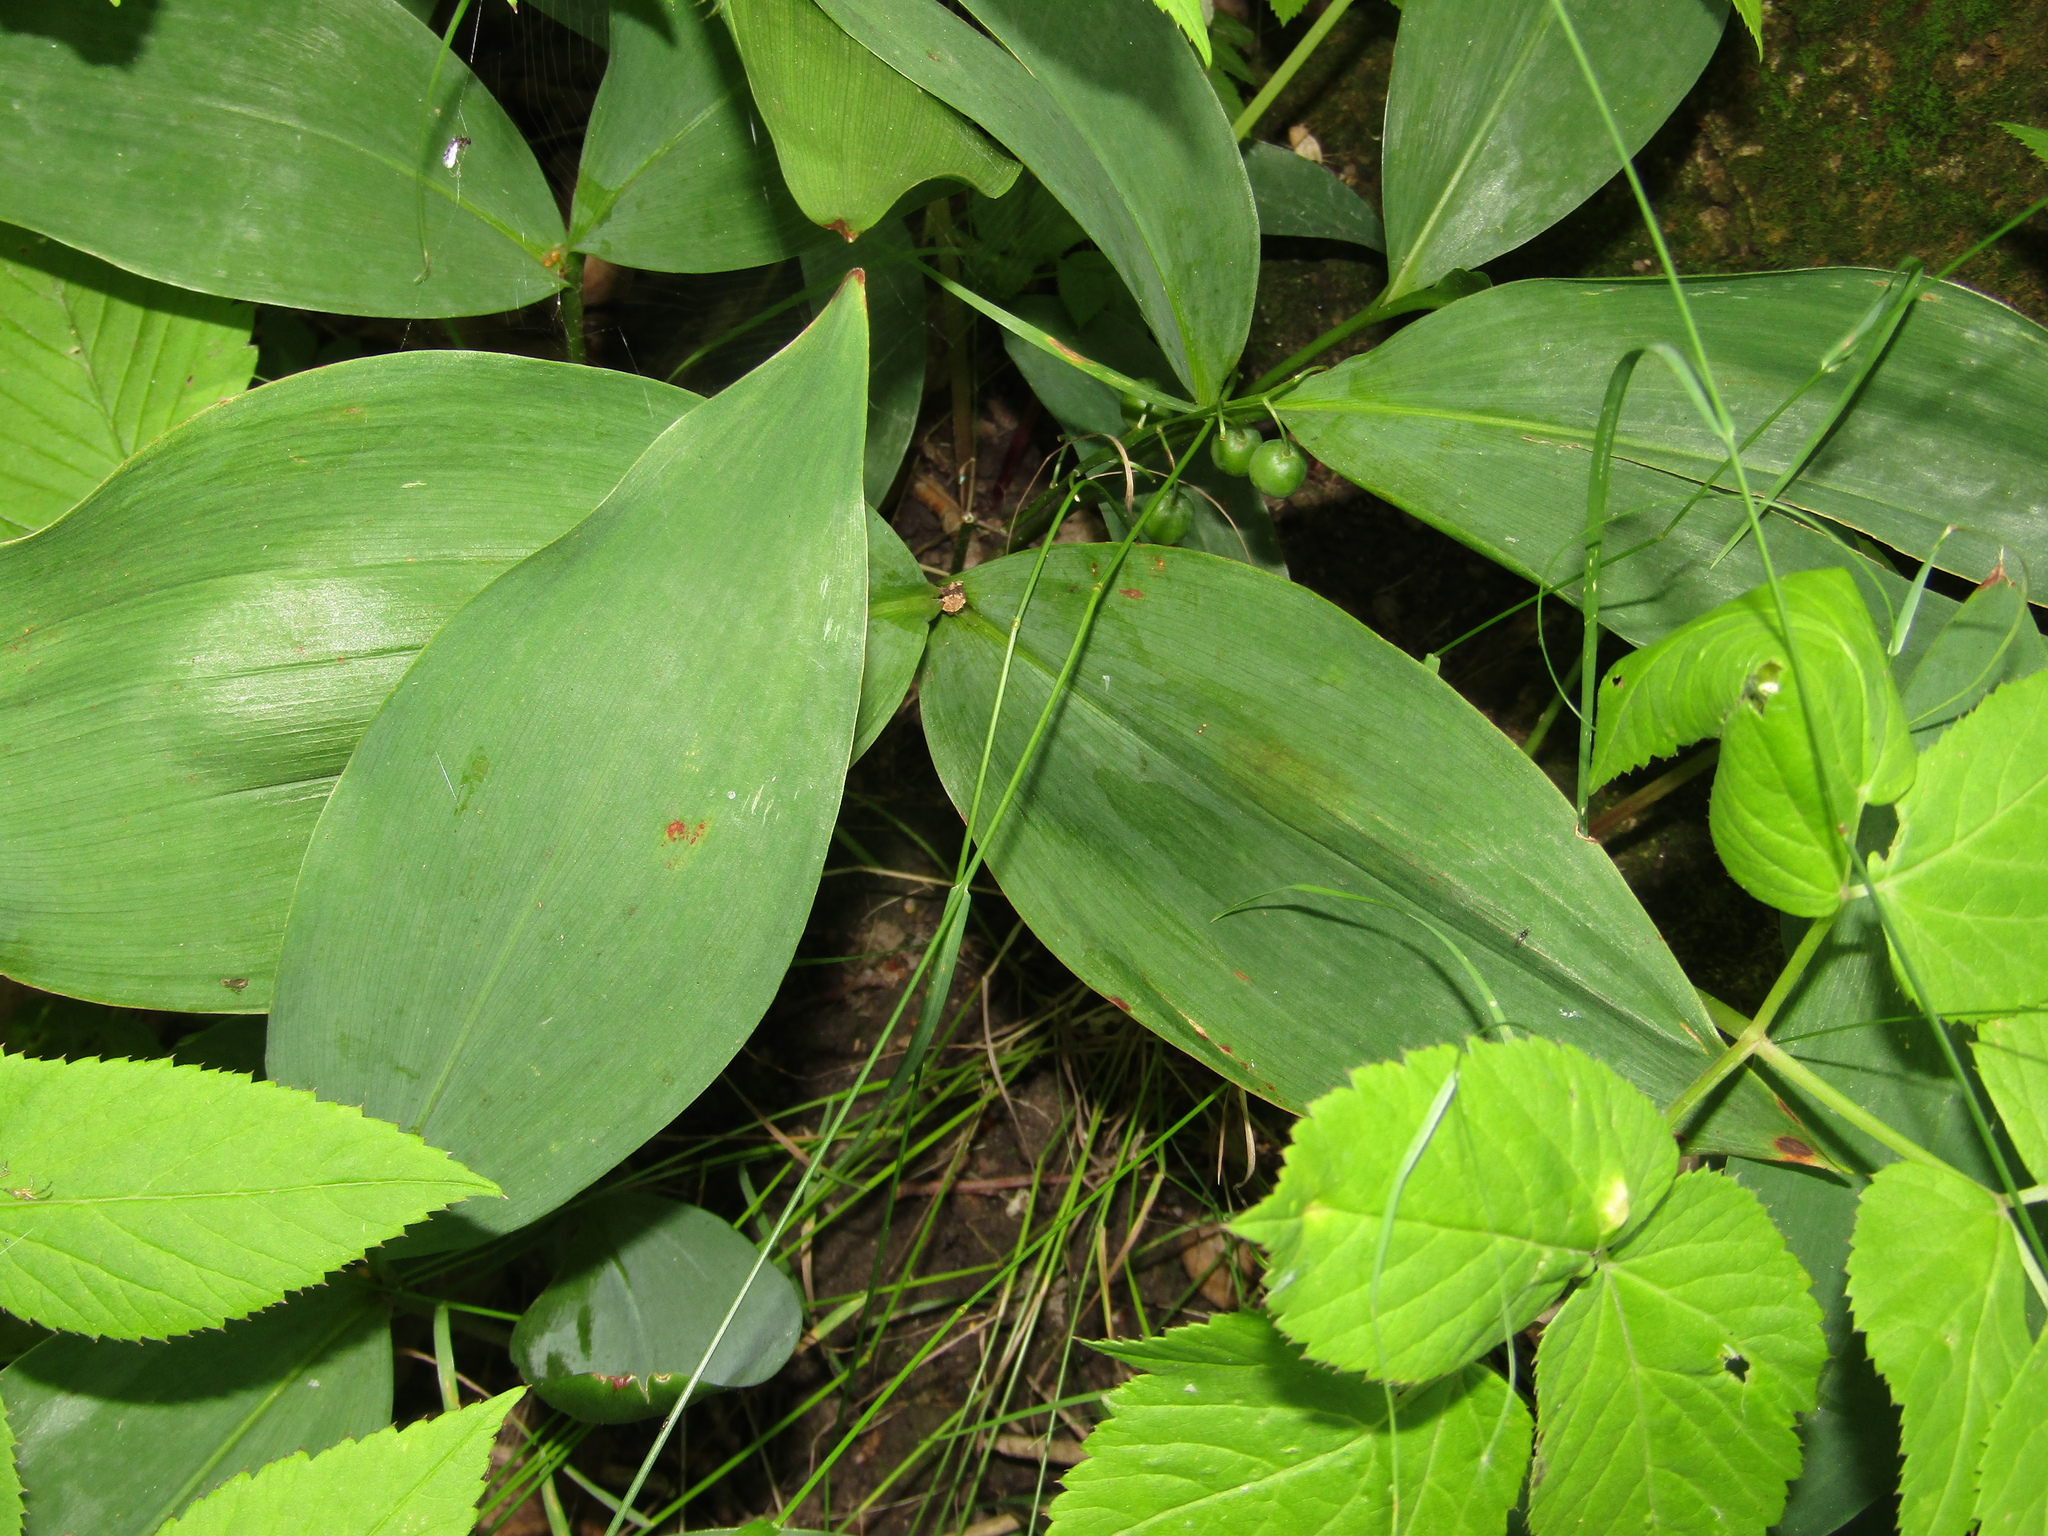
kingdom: Plantae
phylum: Tracheophyta
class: Liliopsida
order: Asparagales
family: Asparagaceae
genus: Convallaria
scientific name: Convallaria majalis
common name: Lily-of-the-valley
